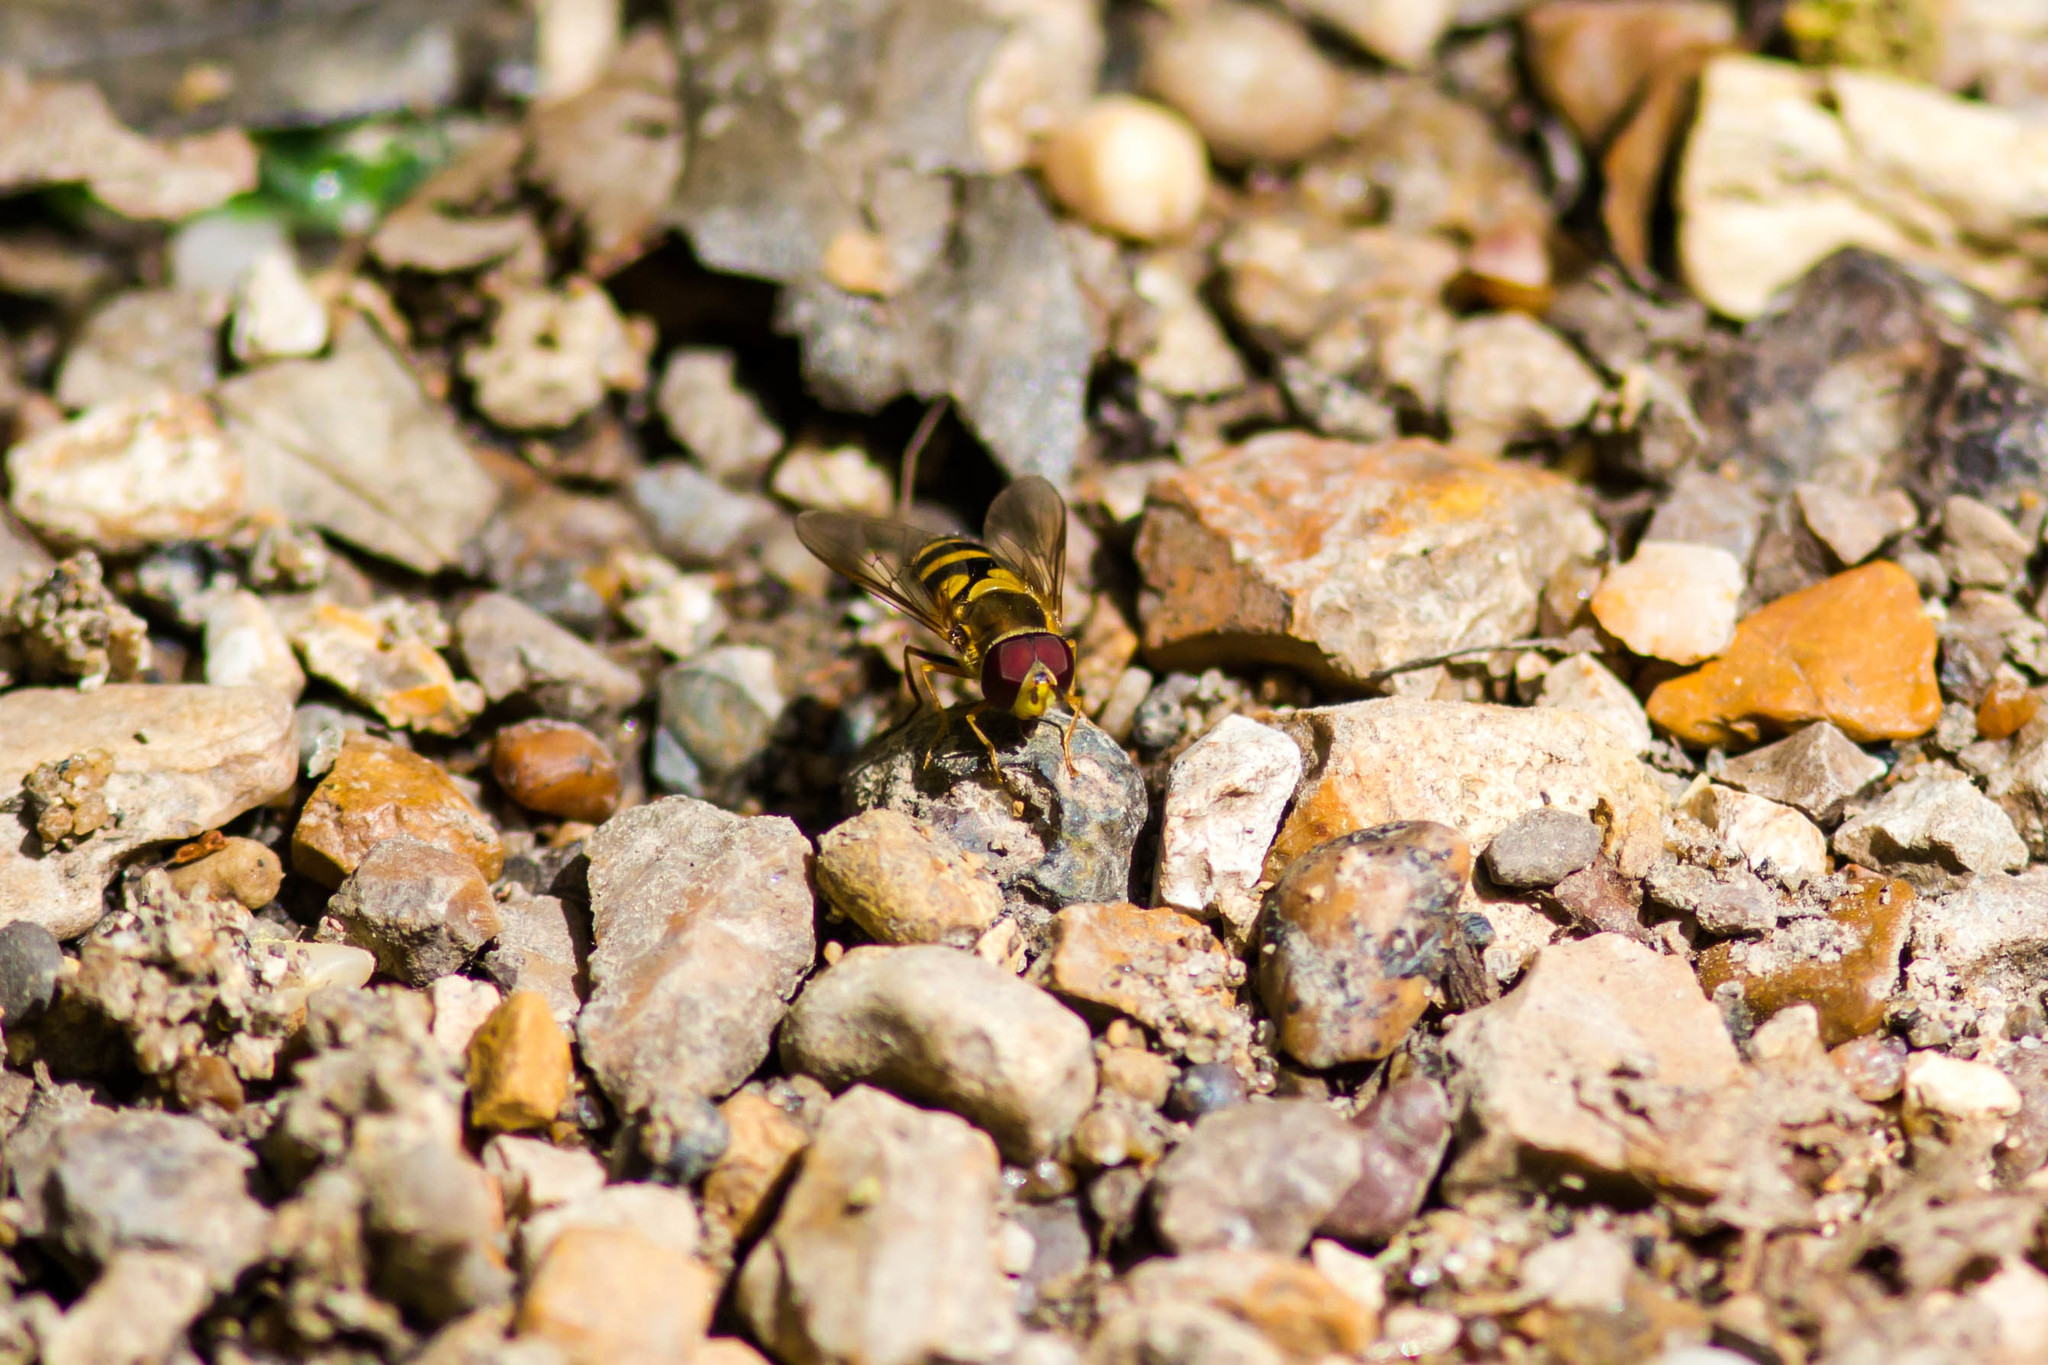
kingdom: Animalia
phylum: Arthropoda
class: Insecta
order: Diptera
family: Syrphidae
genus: Syrphus
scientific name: Syrphus
